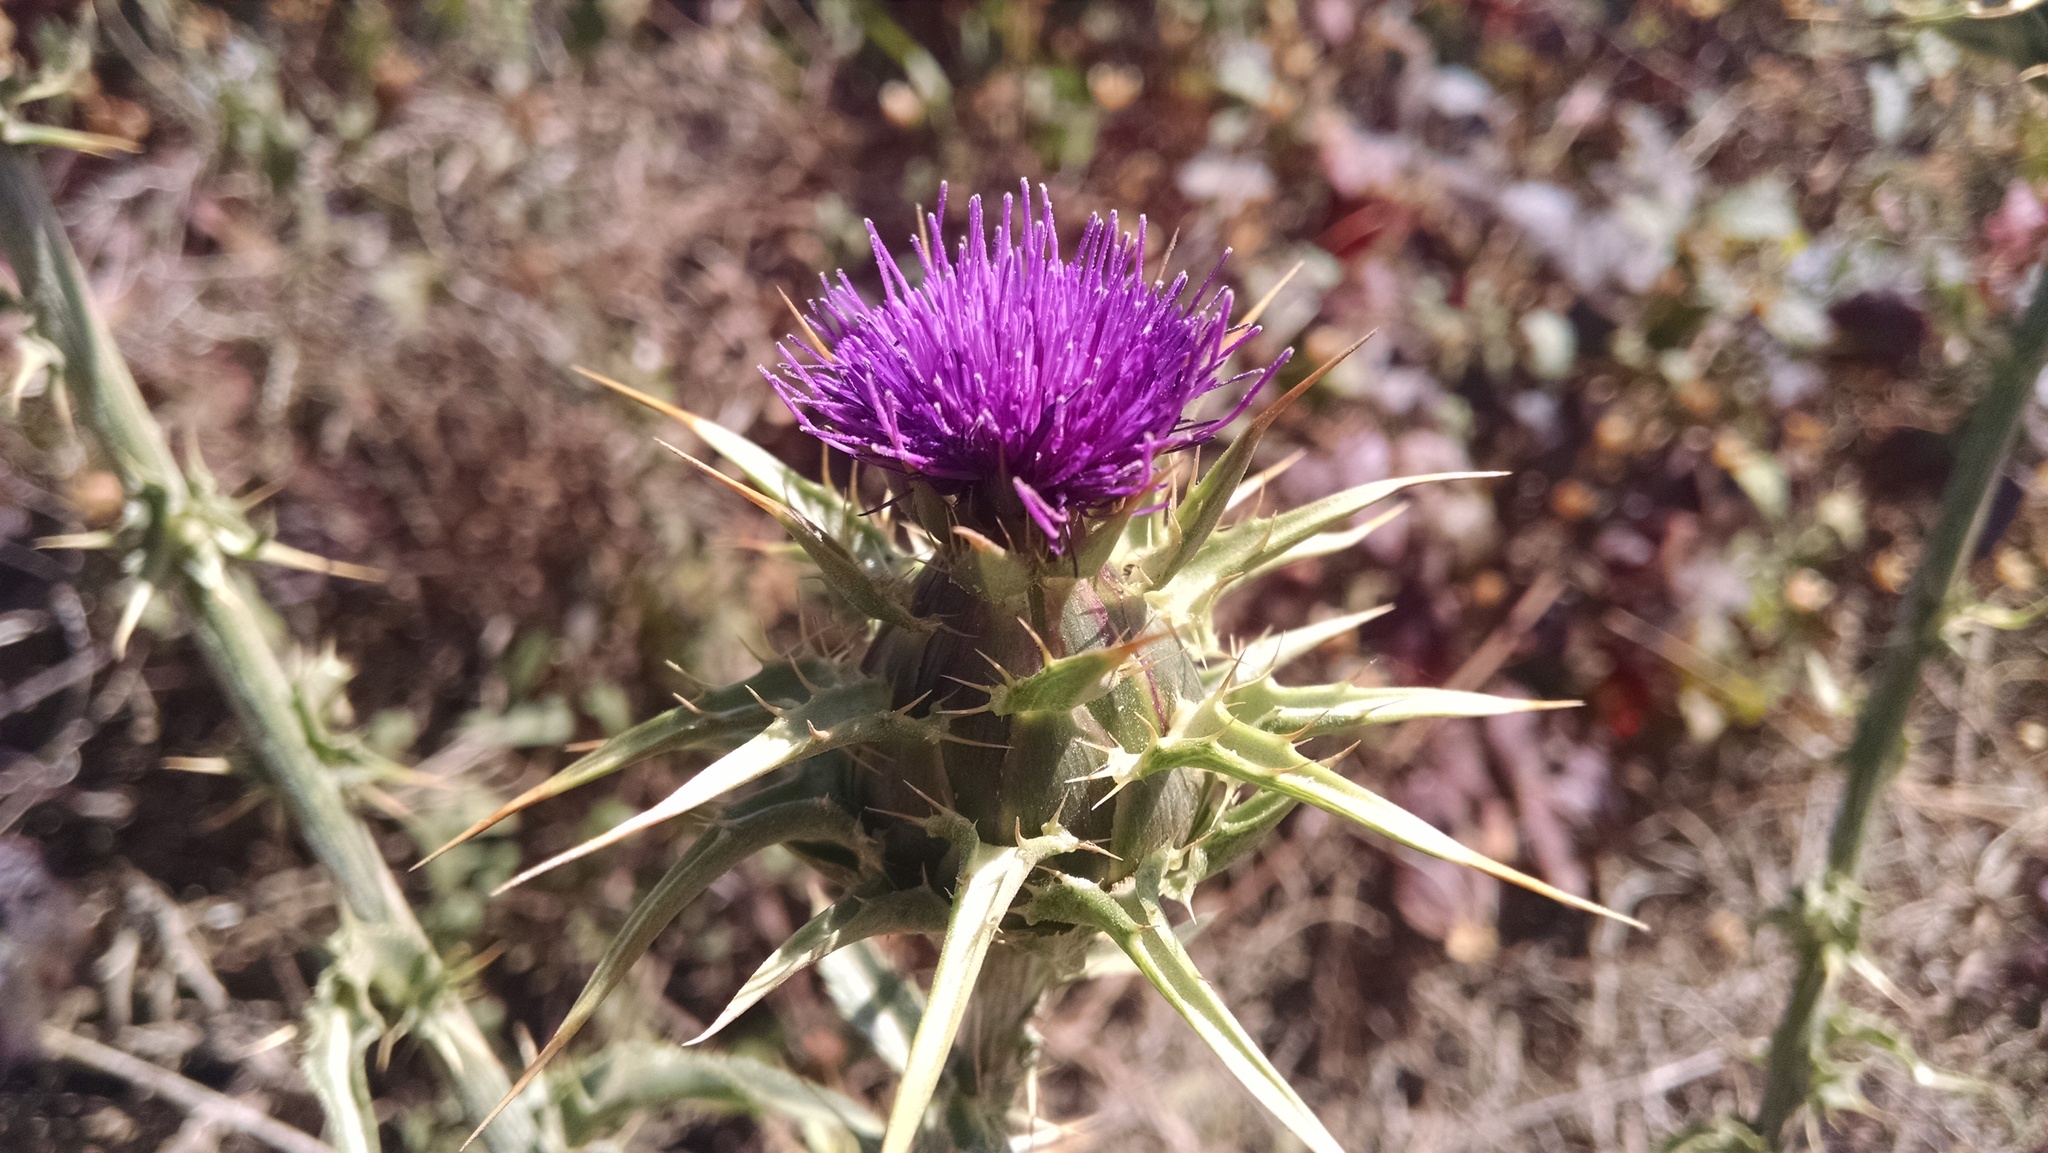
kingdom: Plantae
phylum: Tracheophyta
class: Magnoliopsida
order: Asterales
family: Asteraceae
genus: Silybum
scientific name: Silybum marianum
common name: Milk thistle
